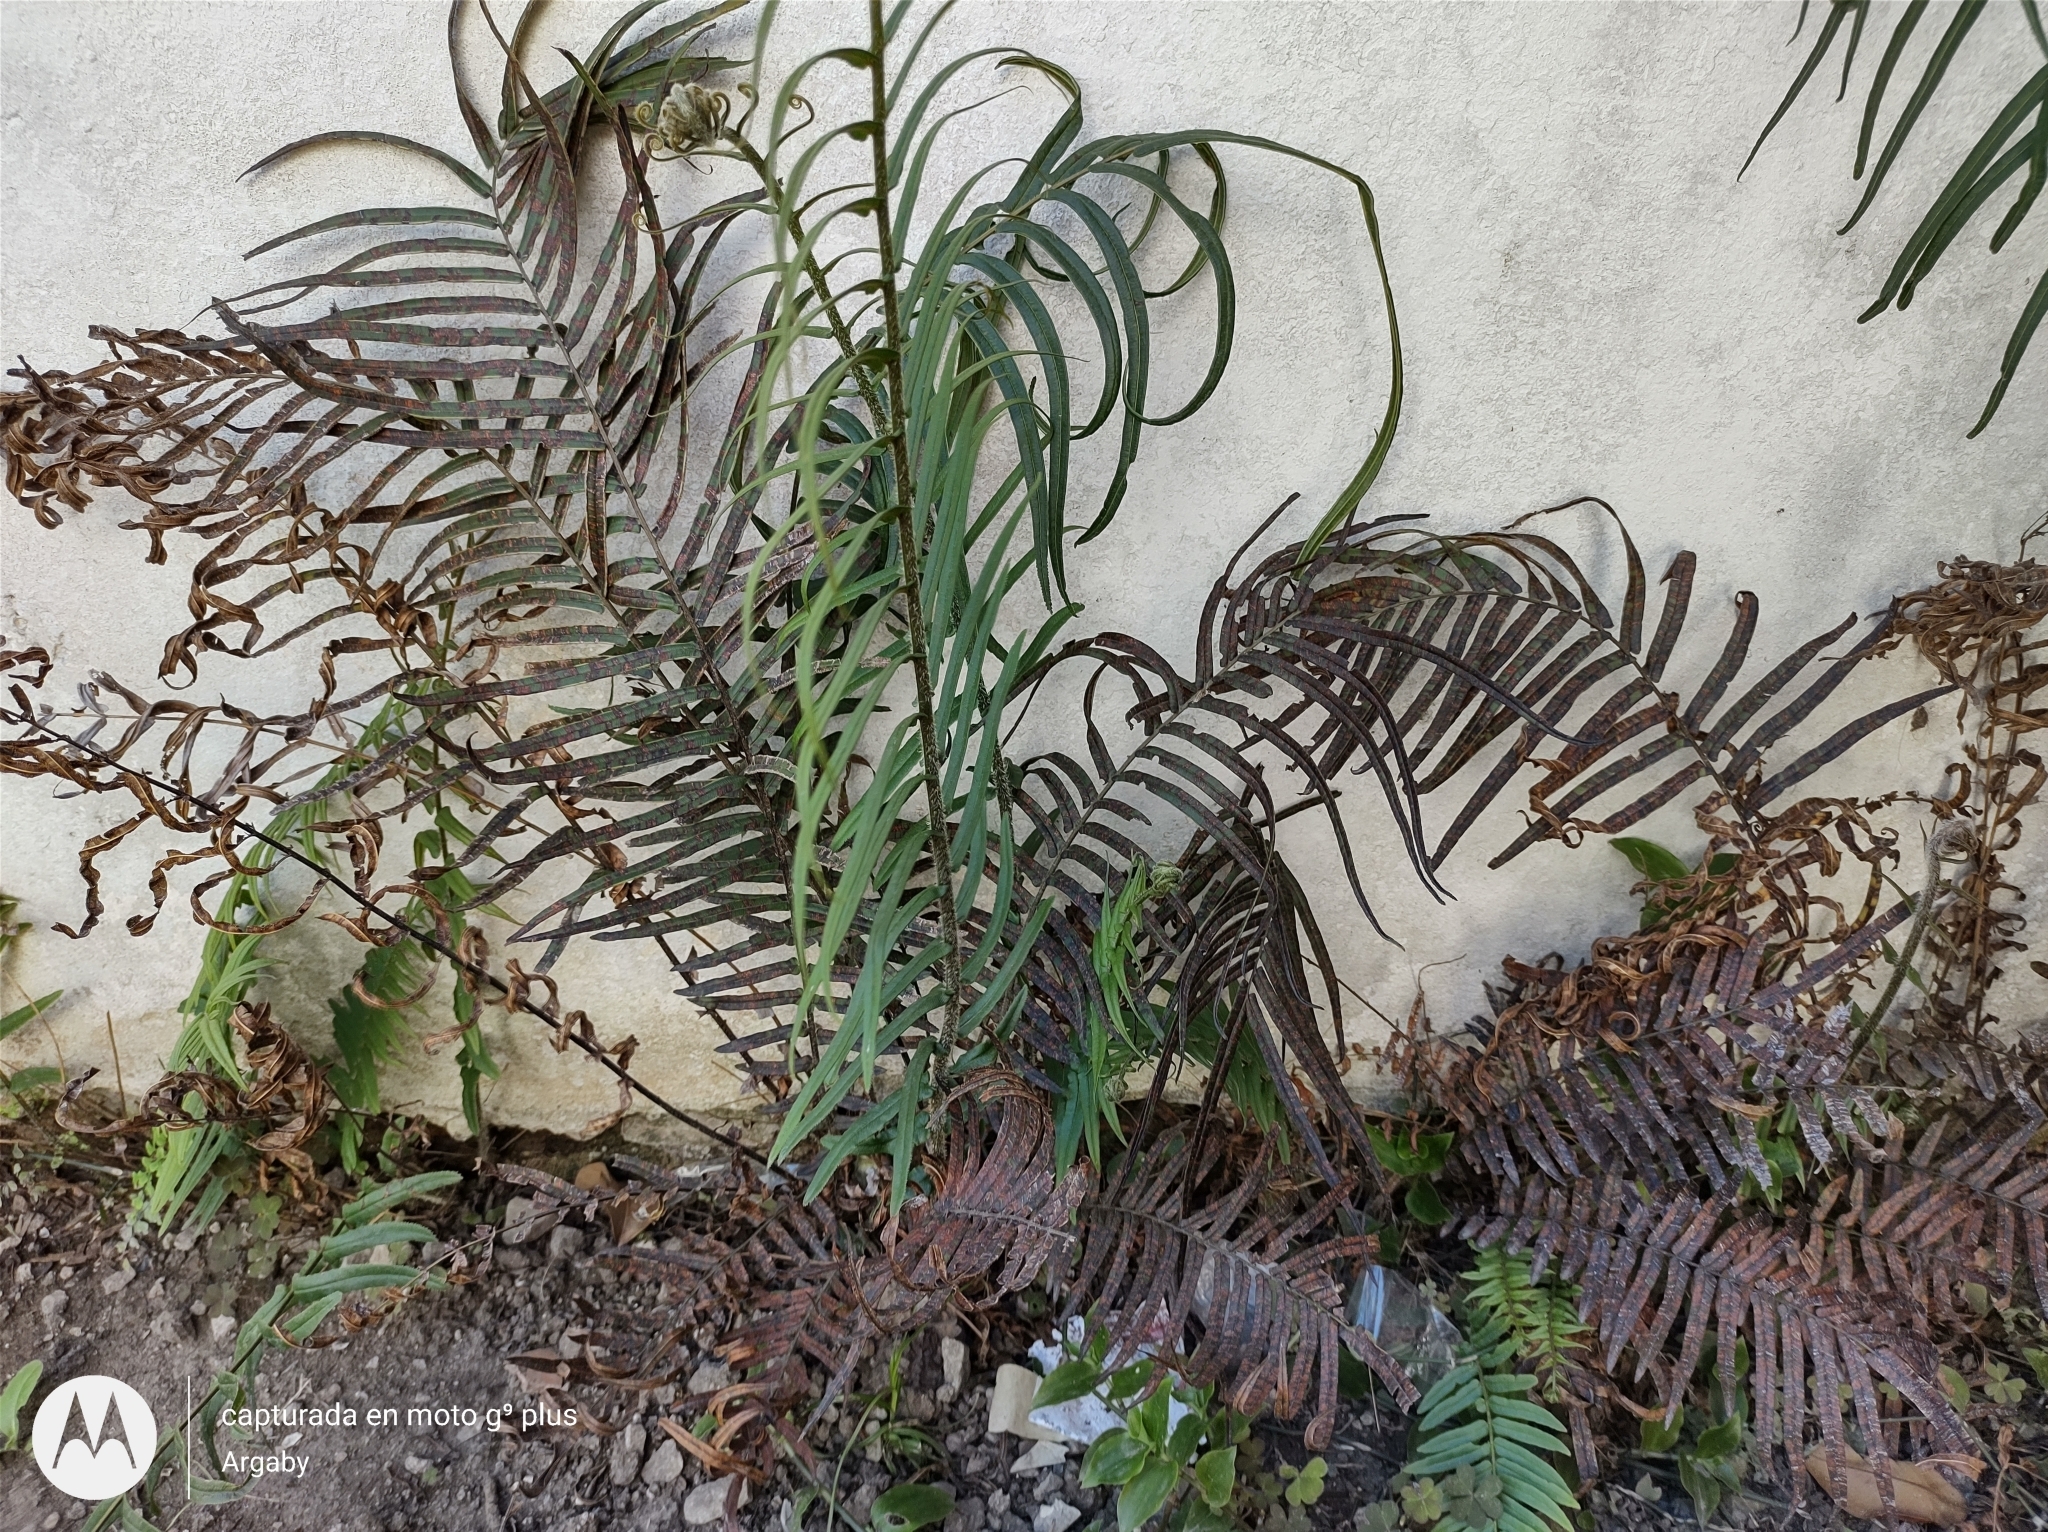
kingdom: Plantae
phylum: Tracheophyta
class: Polypodiopsida
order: Polypodiales
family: Pteridaceae
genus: Pteris
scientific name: Pteris vittata
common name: Ladder brake
